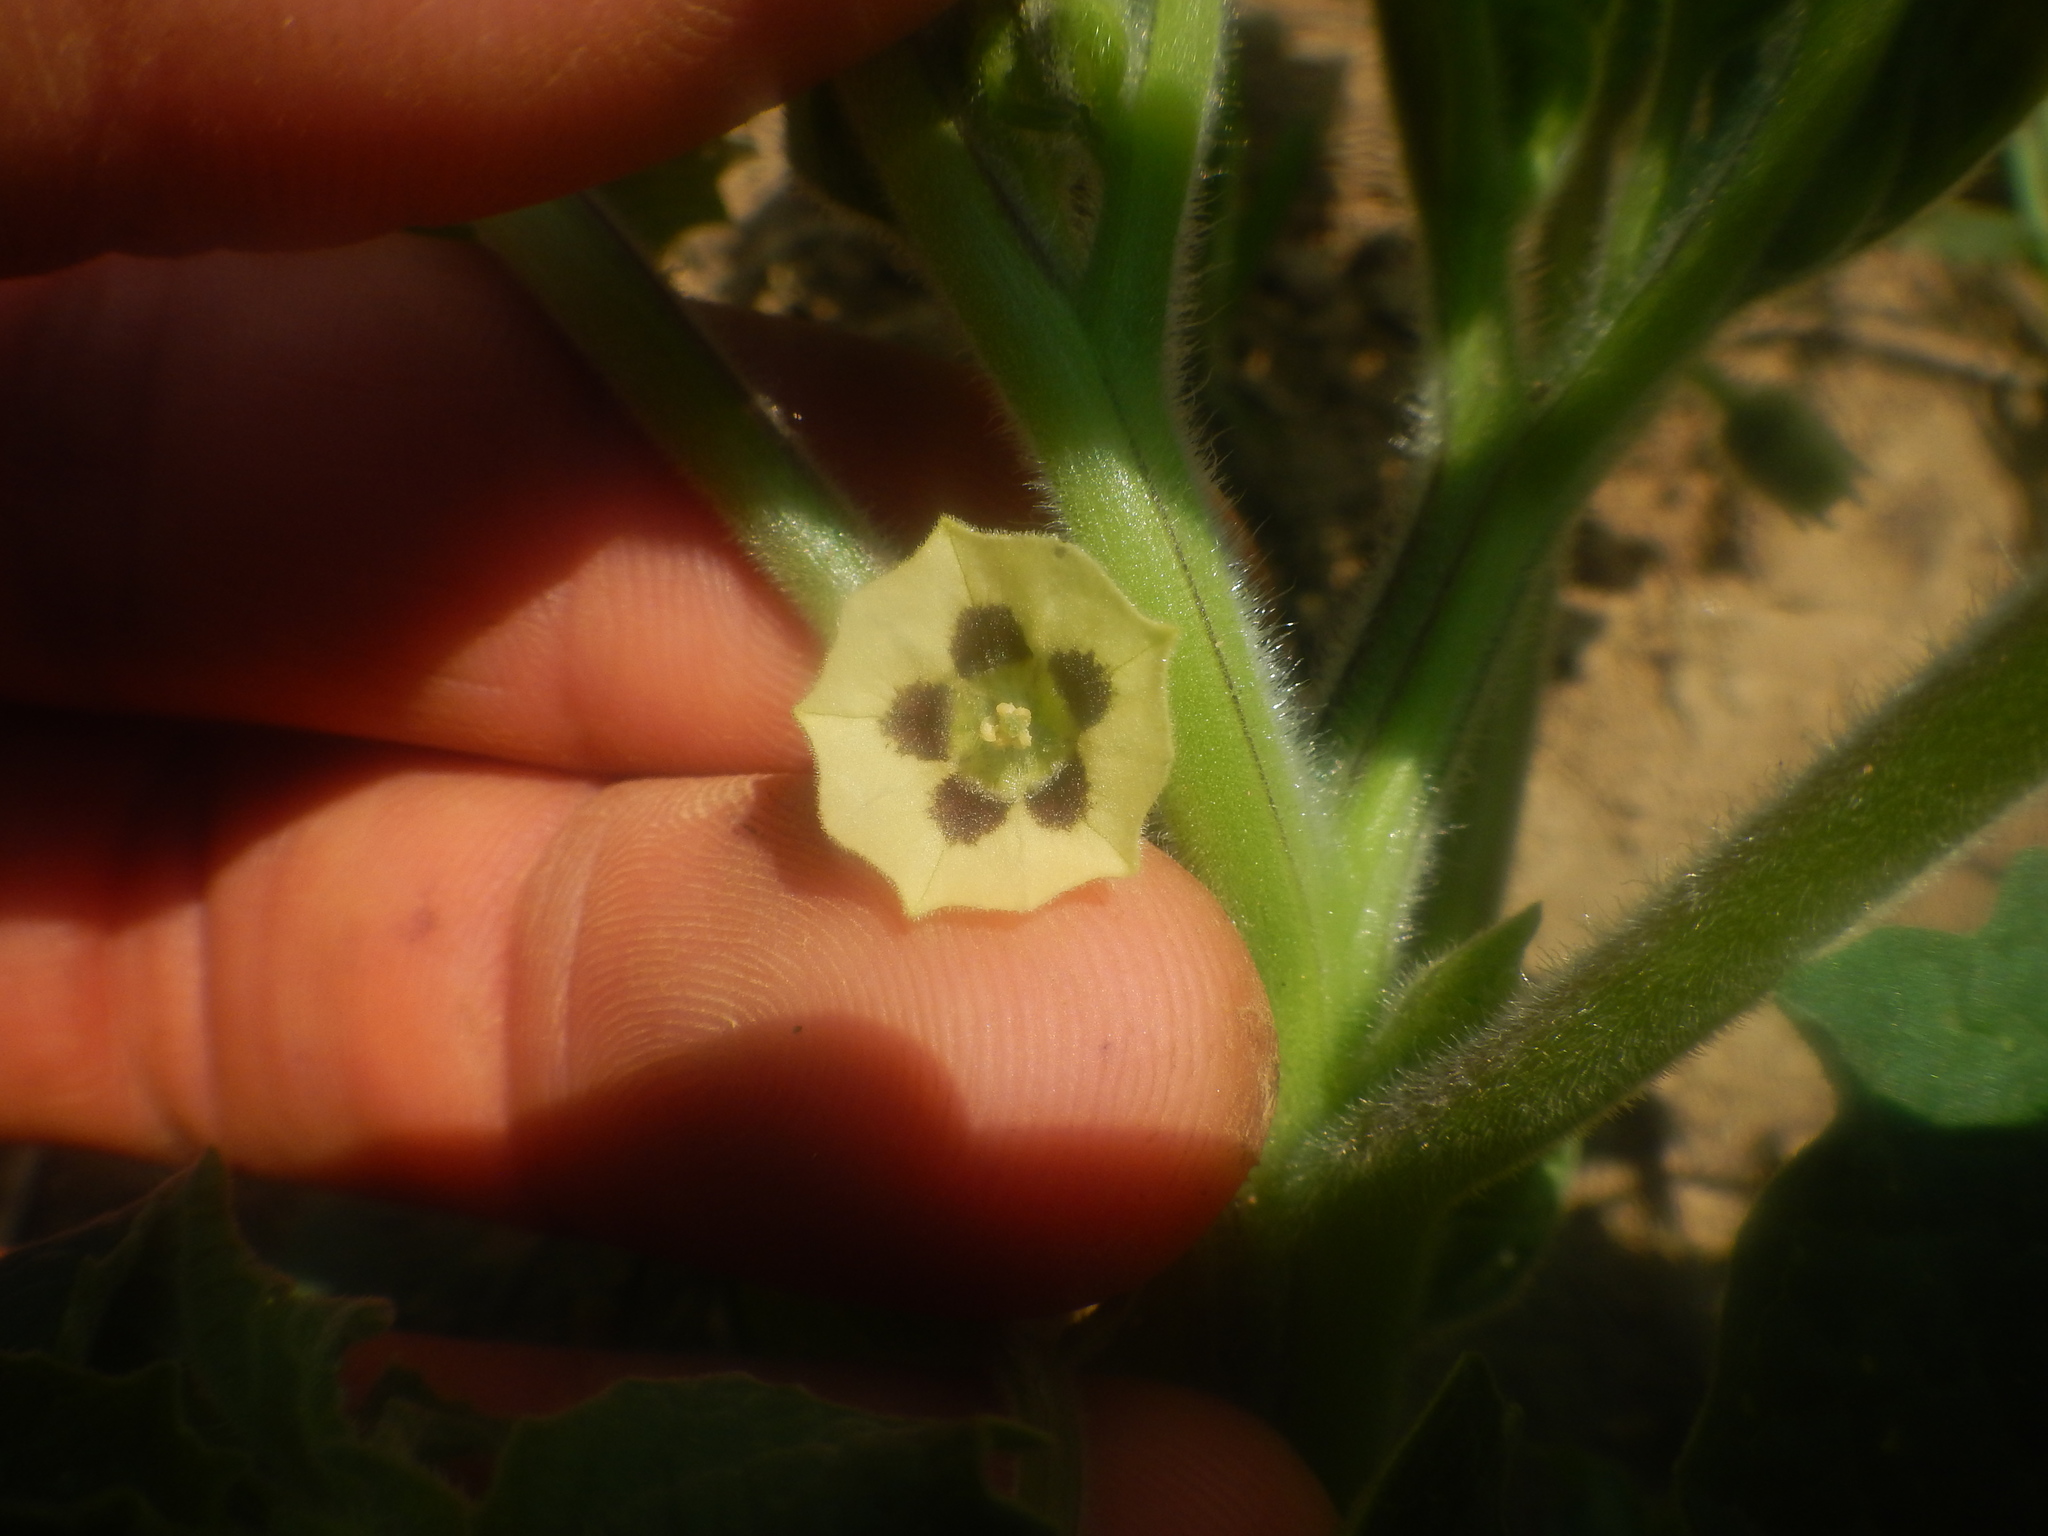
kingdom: Plantae
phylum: Tracheophyta
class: Magnoliopsida
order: Solanales
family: Solanaceae
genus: Physalis
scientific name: Physalis grisea
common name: Dwarf cape-gooseberry
